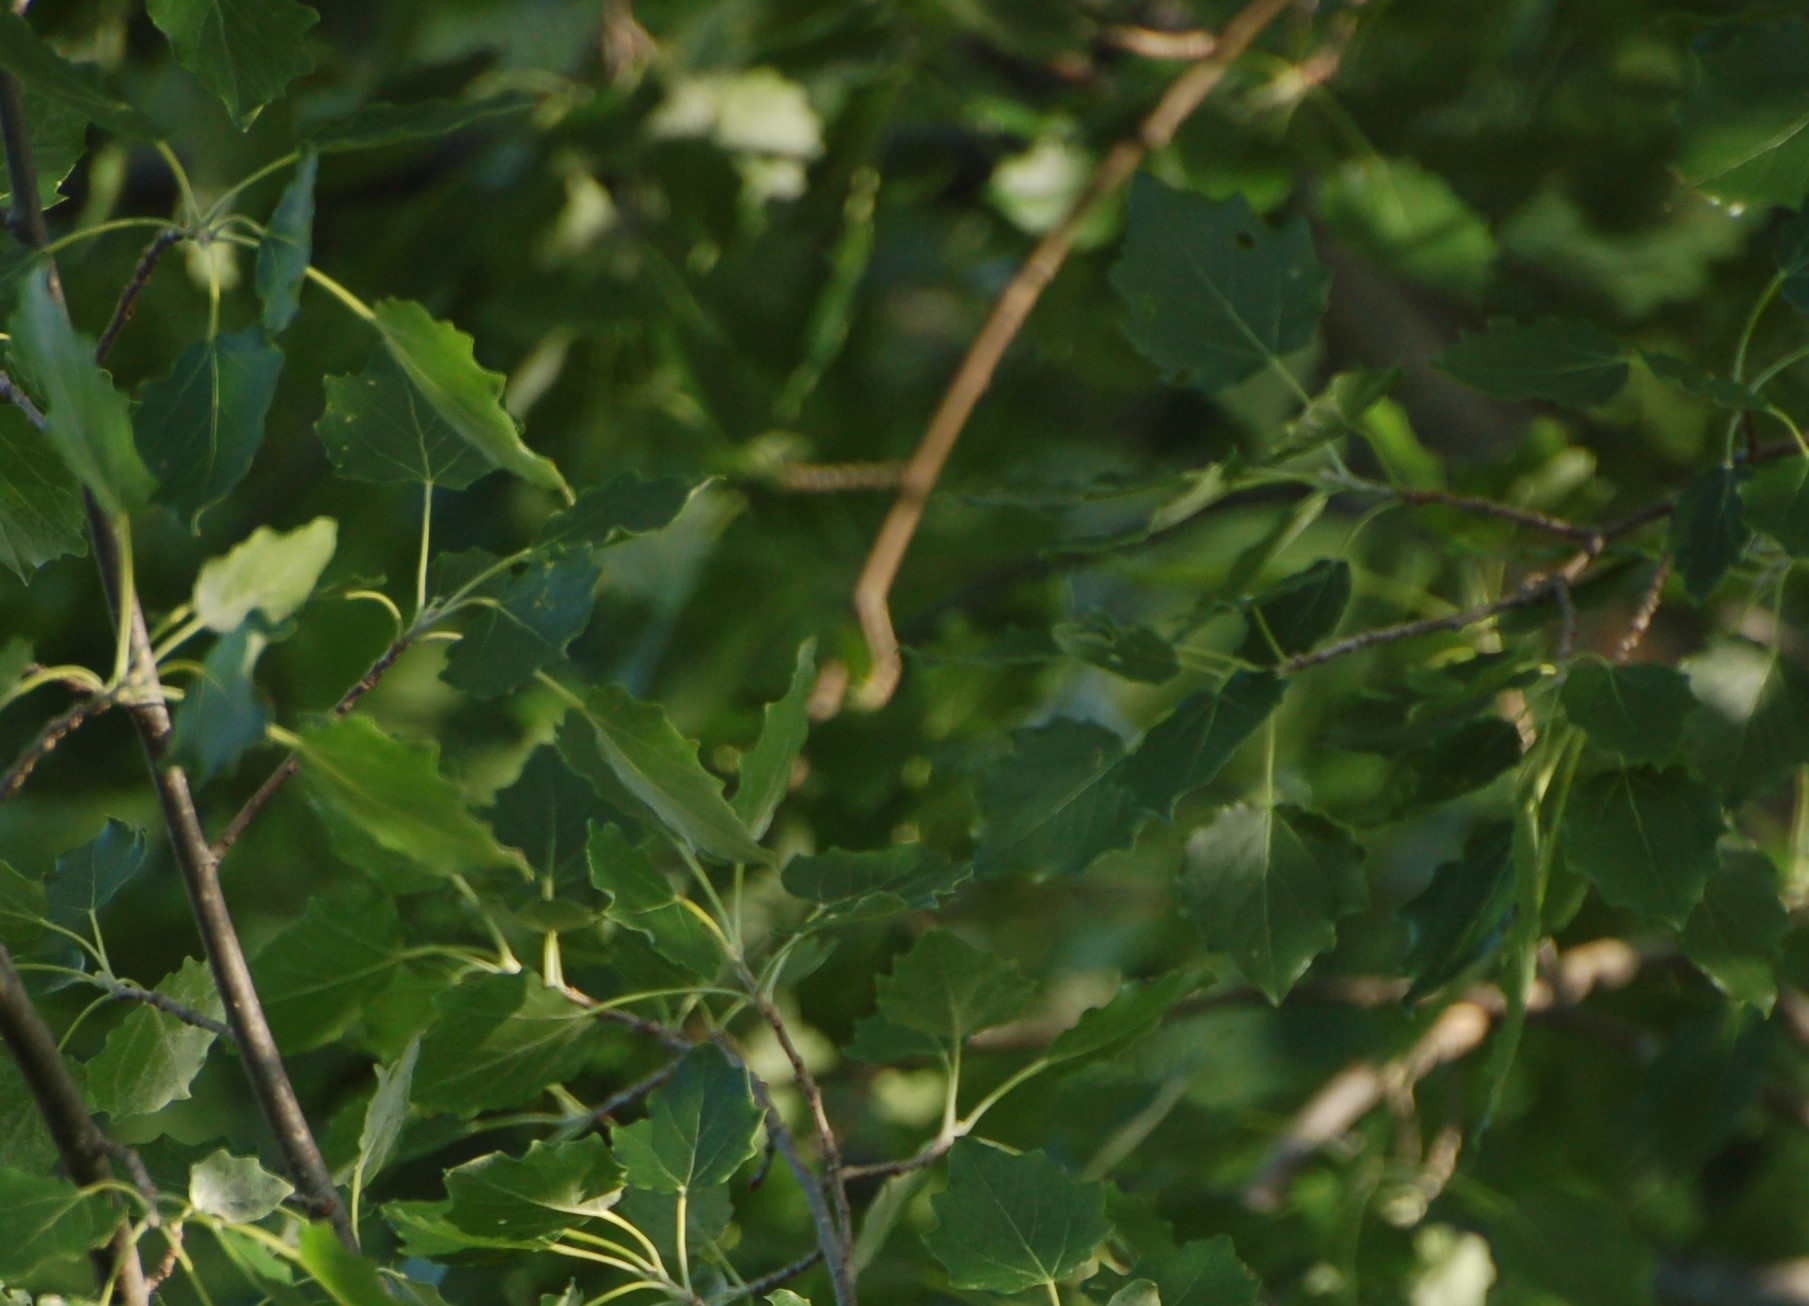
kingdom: Plantae
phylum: Tracheophyta
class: Magnoliopsida
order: Malpighiales
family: Salicaceae
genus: Populus
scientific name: Populus grandidentata
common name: Bigtooth aspen
